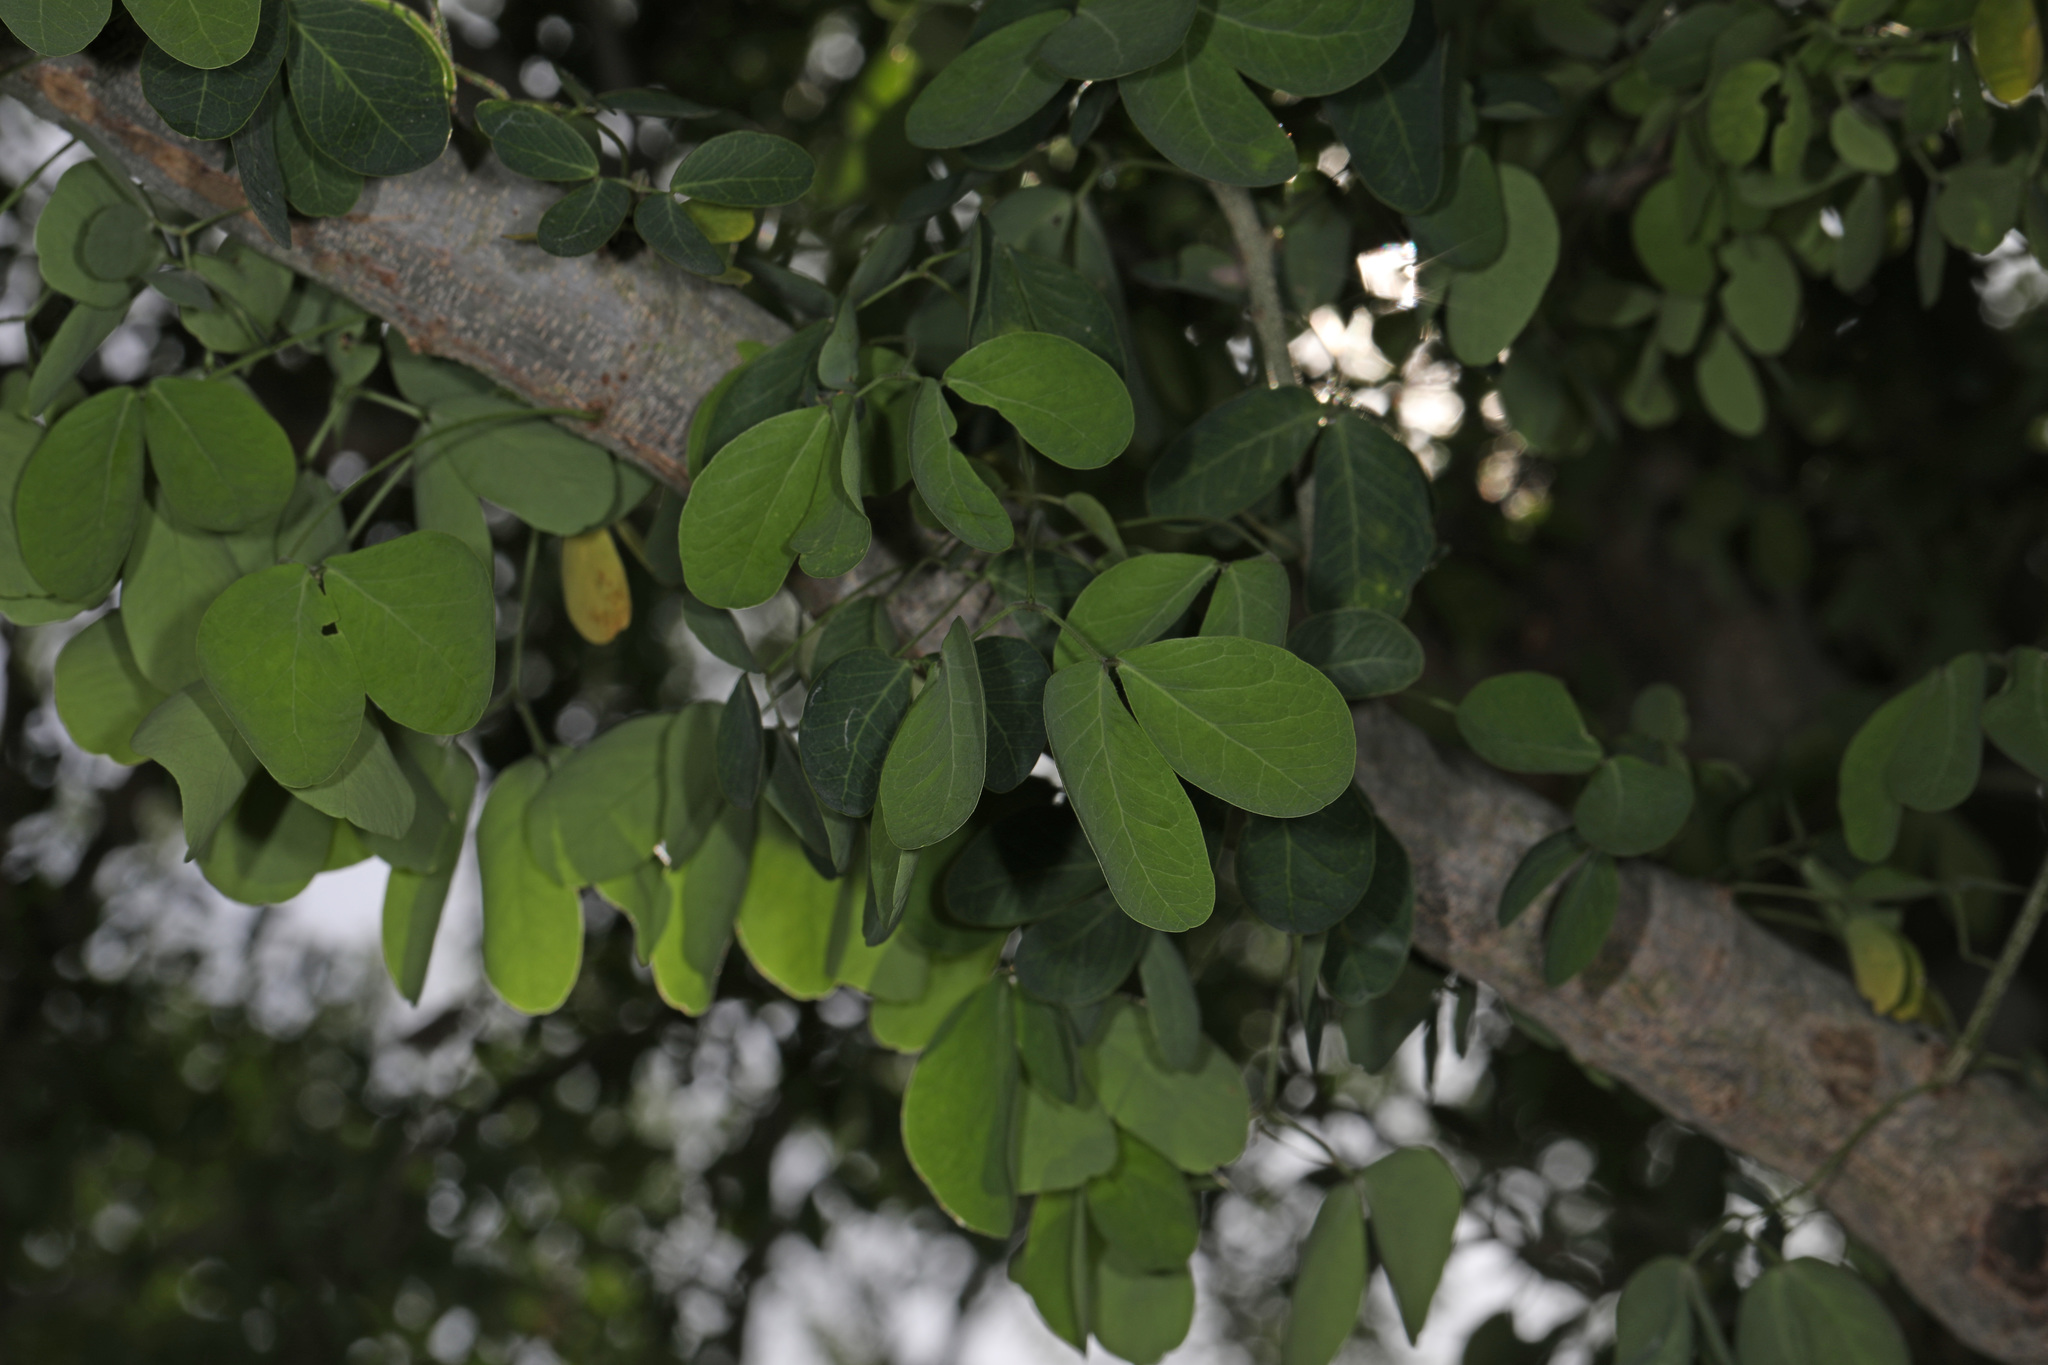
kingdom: Plantae
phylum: Tracheophyta
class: Magnoliopsida
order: Fabales
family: Fabaceae
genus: Pithecellobium
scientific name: Pithecellobium dulce
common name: Monkeypod
